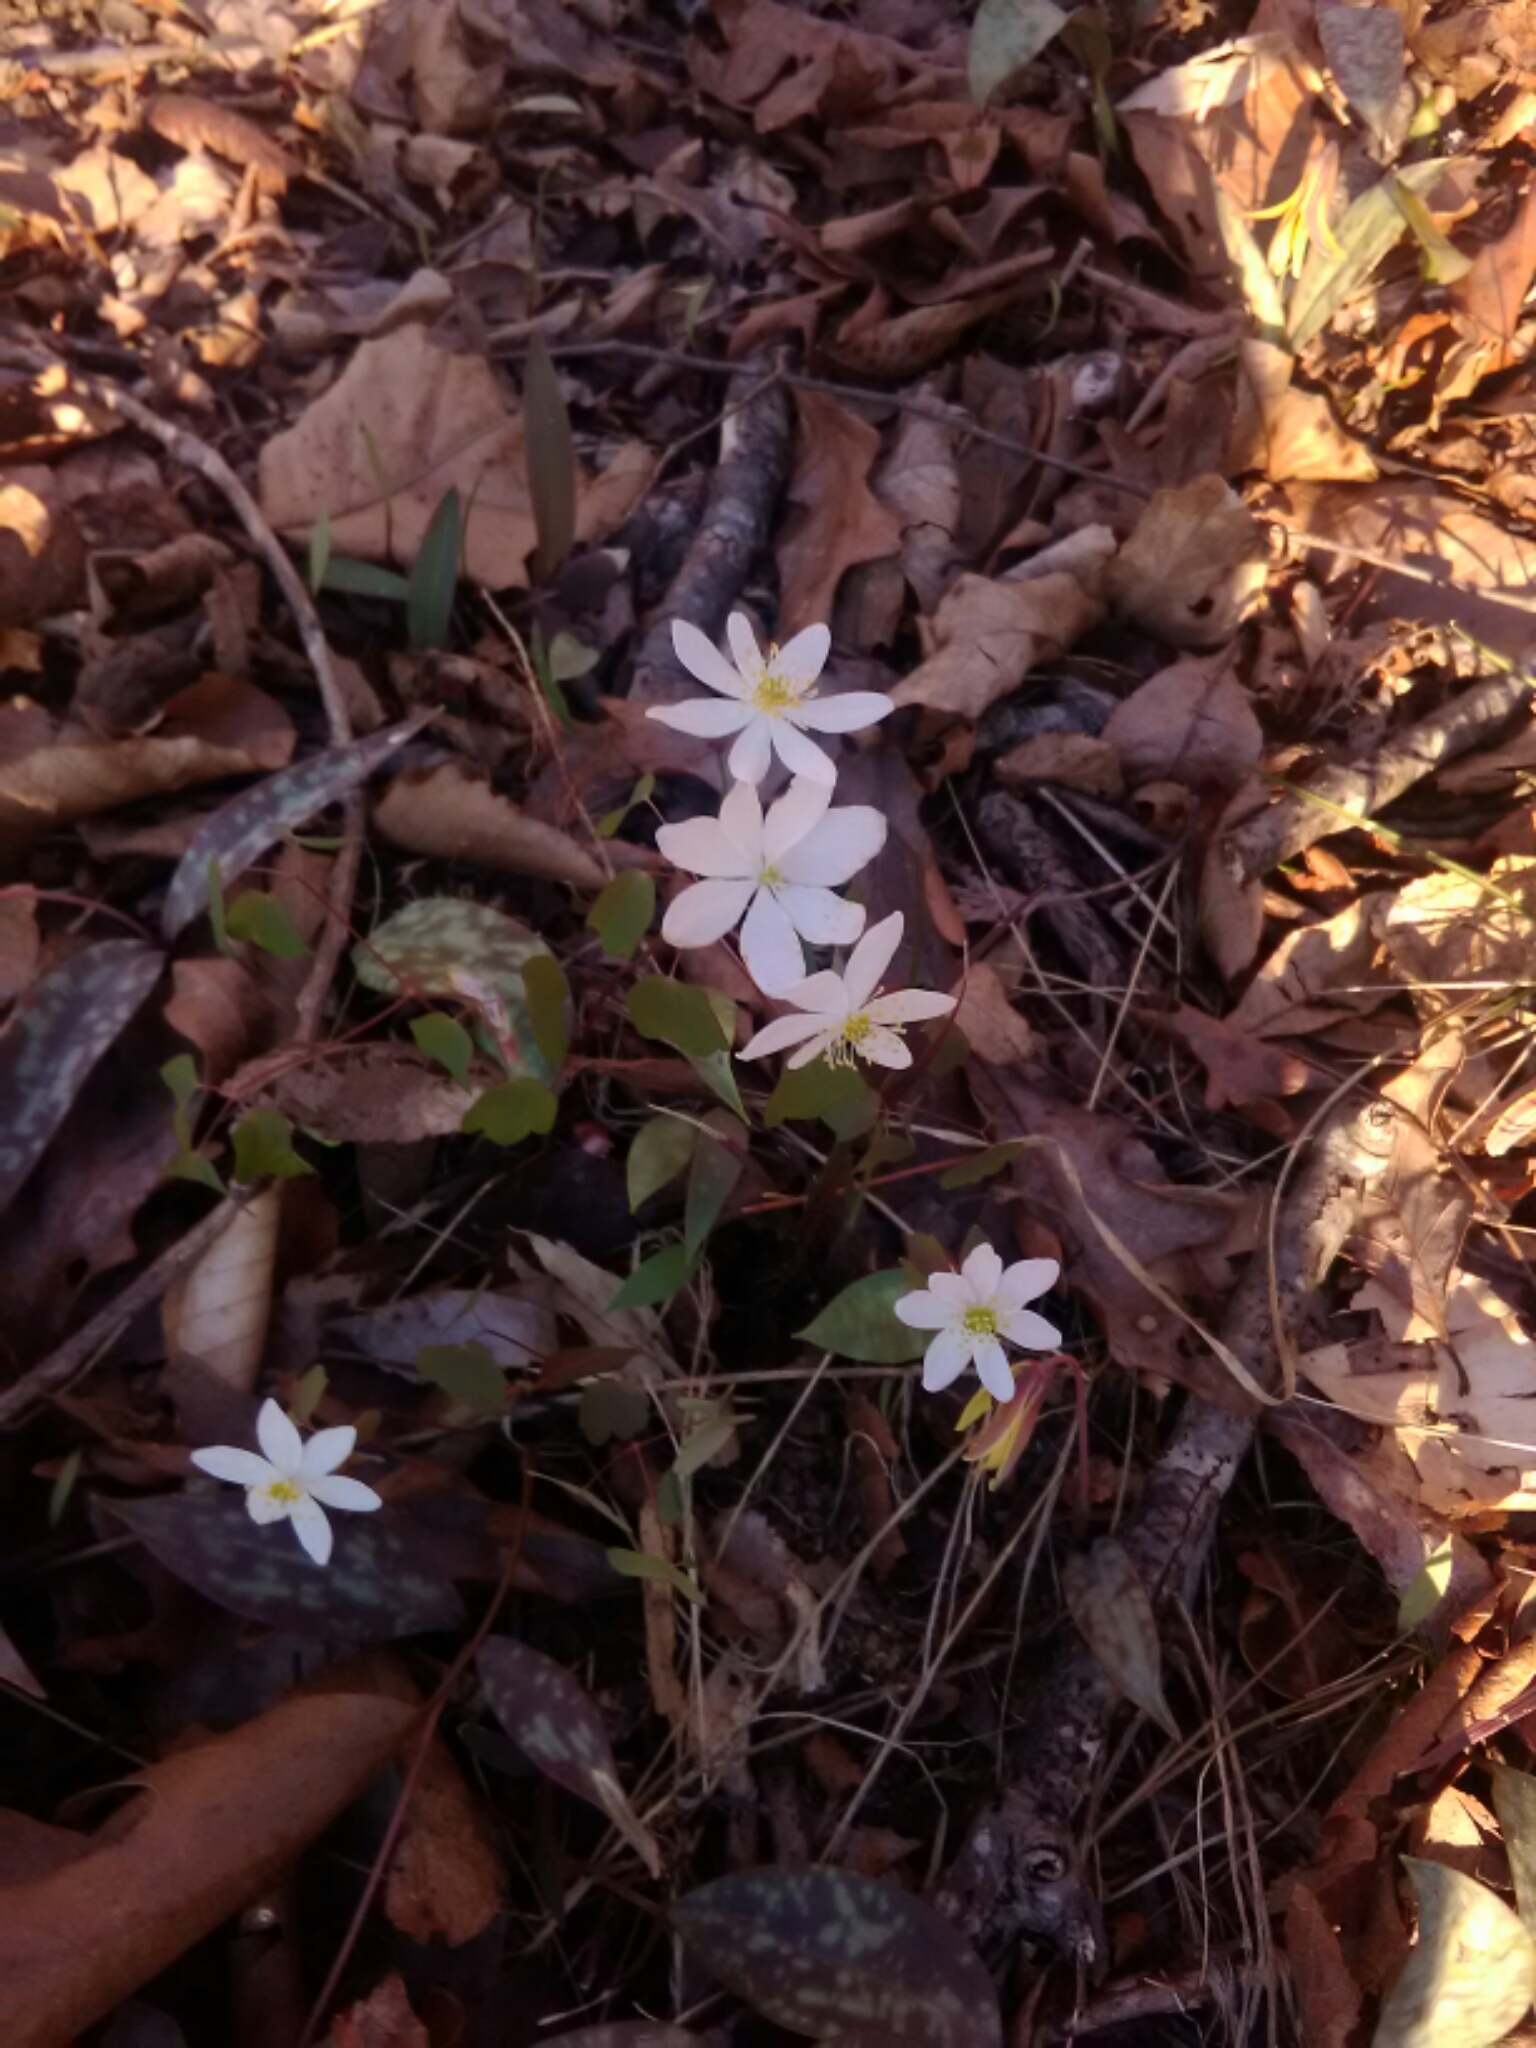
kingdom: Plantae
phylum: Tracheophyta
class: Magnoliopsida
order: Ranunculales
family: Ranunculaceae
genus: Thalictrum
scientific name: Thalictrum thalictroides
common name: Rue-anemone
